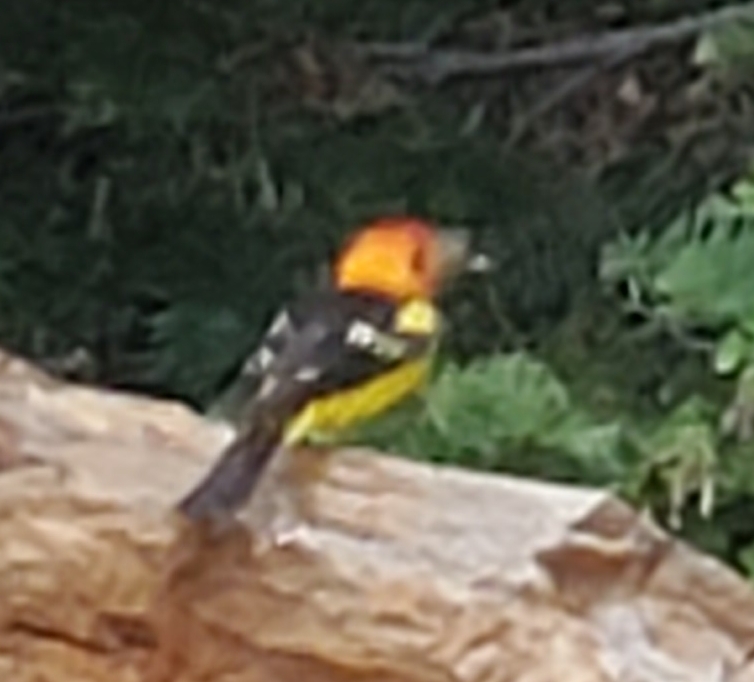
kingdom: Animalia
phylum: Chordata
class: Aves
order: Passeriformes
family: Cardinalidae
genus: Piranga
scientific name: Piranga ludoviciana
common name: Western tanager
